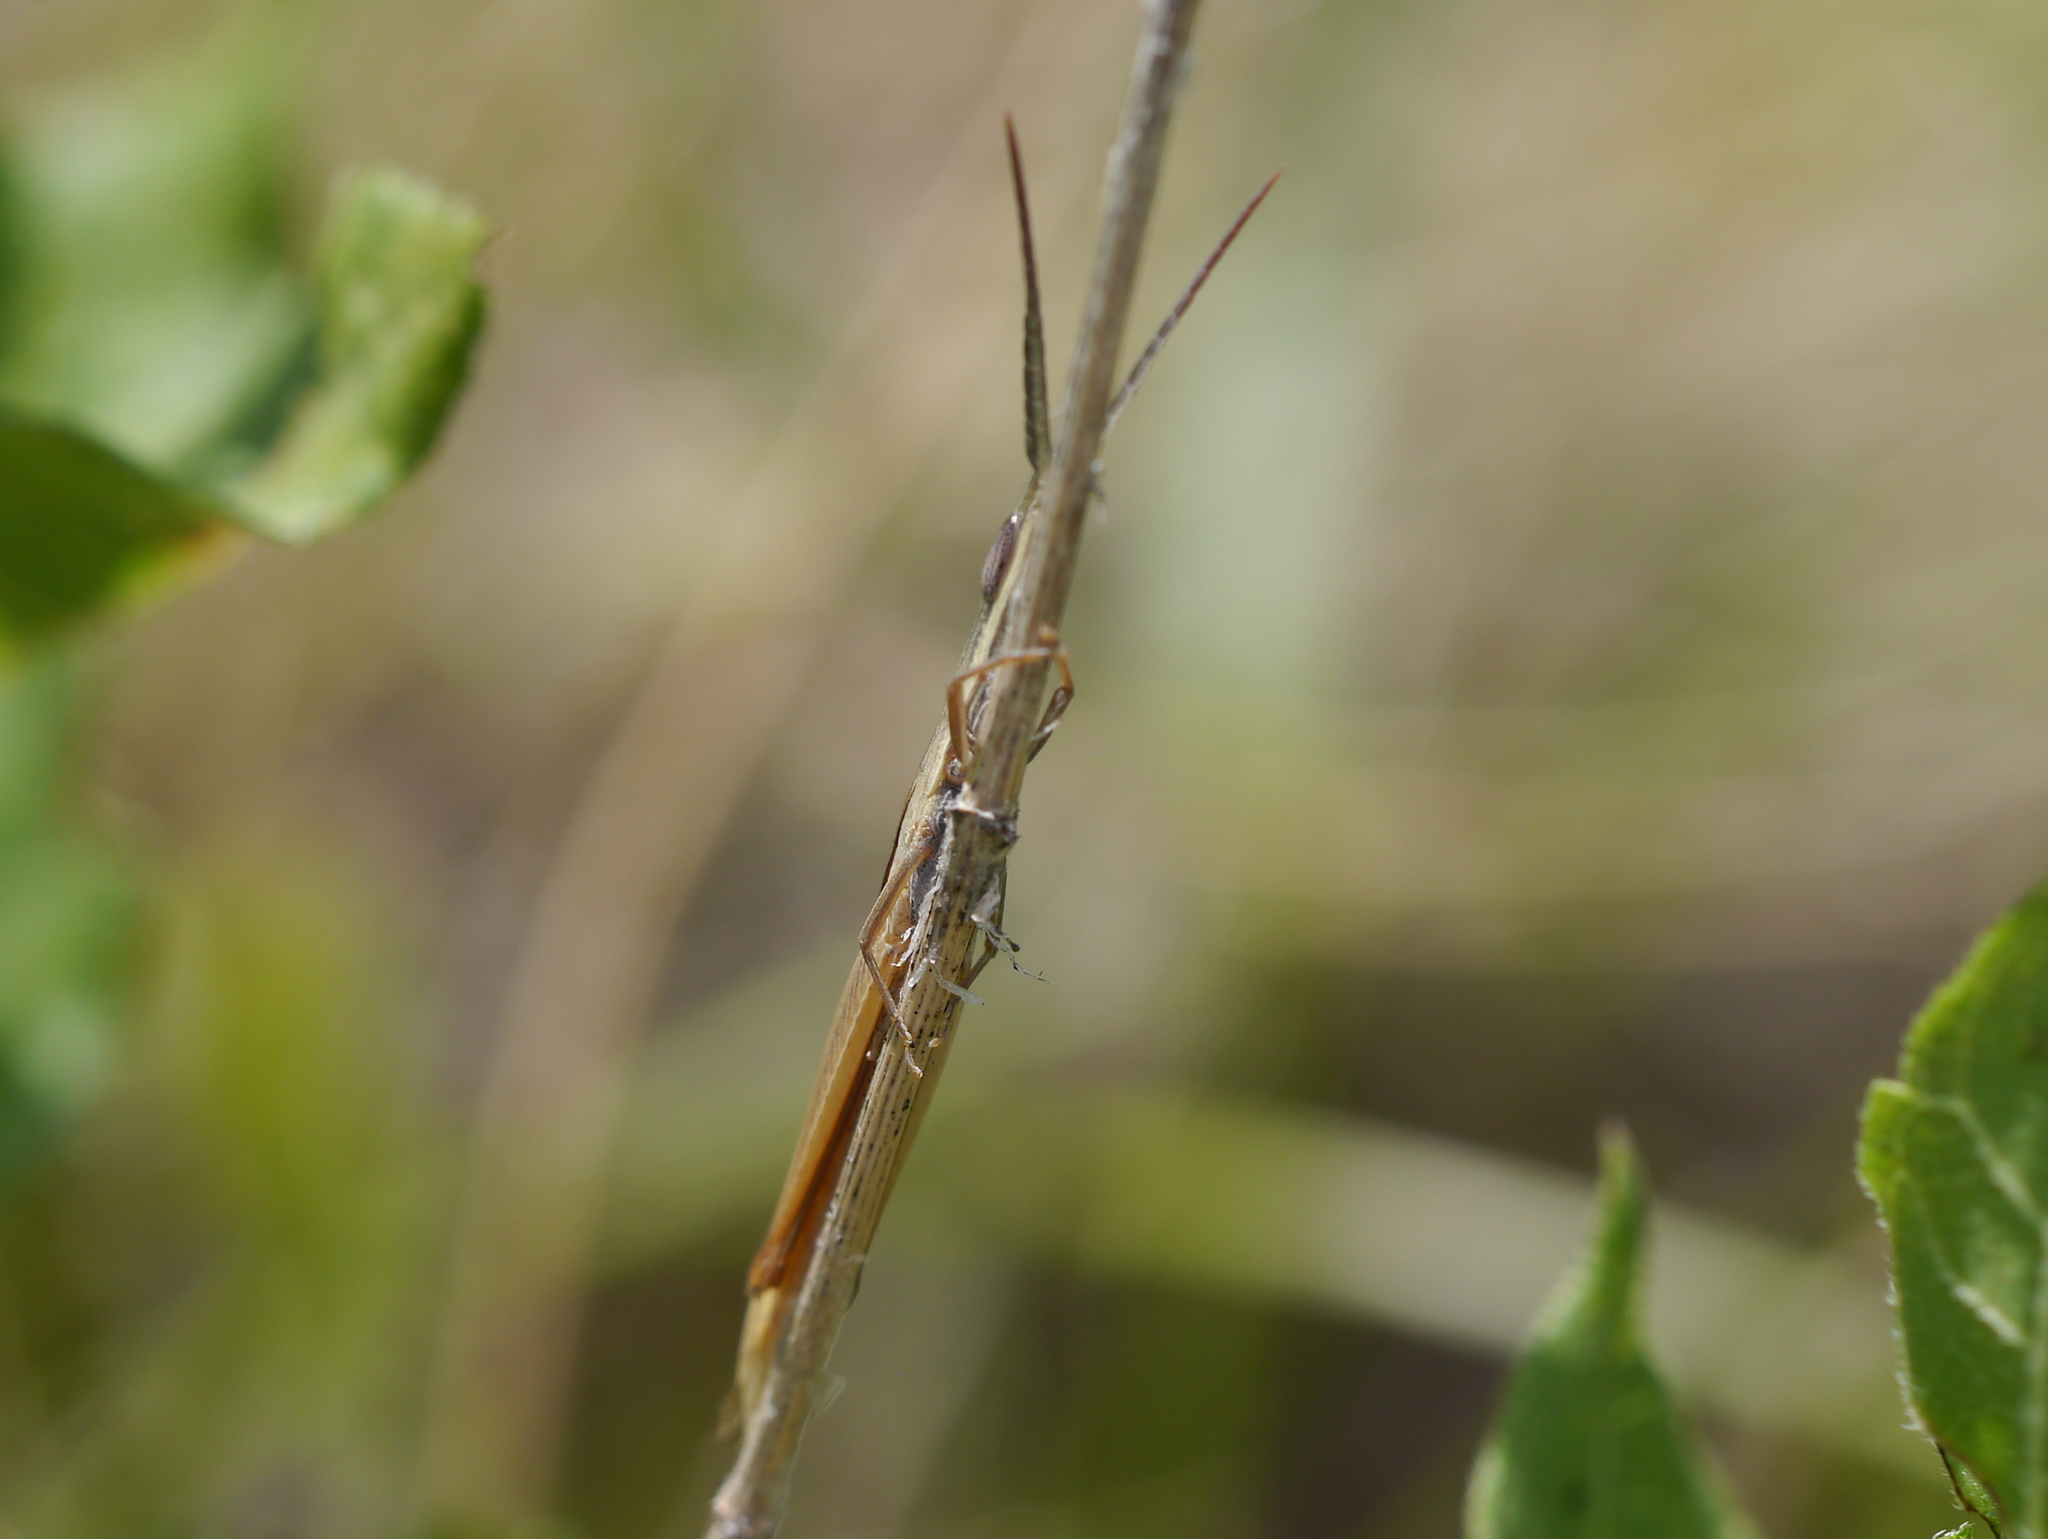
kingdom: Animalia
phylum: Arthropoda
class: Insecta
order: Orthoptera
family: Acrididae
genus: Achurum
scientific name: Achurum sumichrasti
